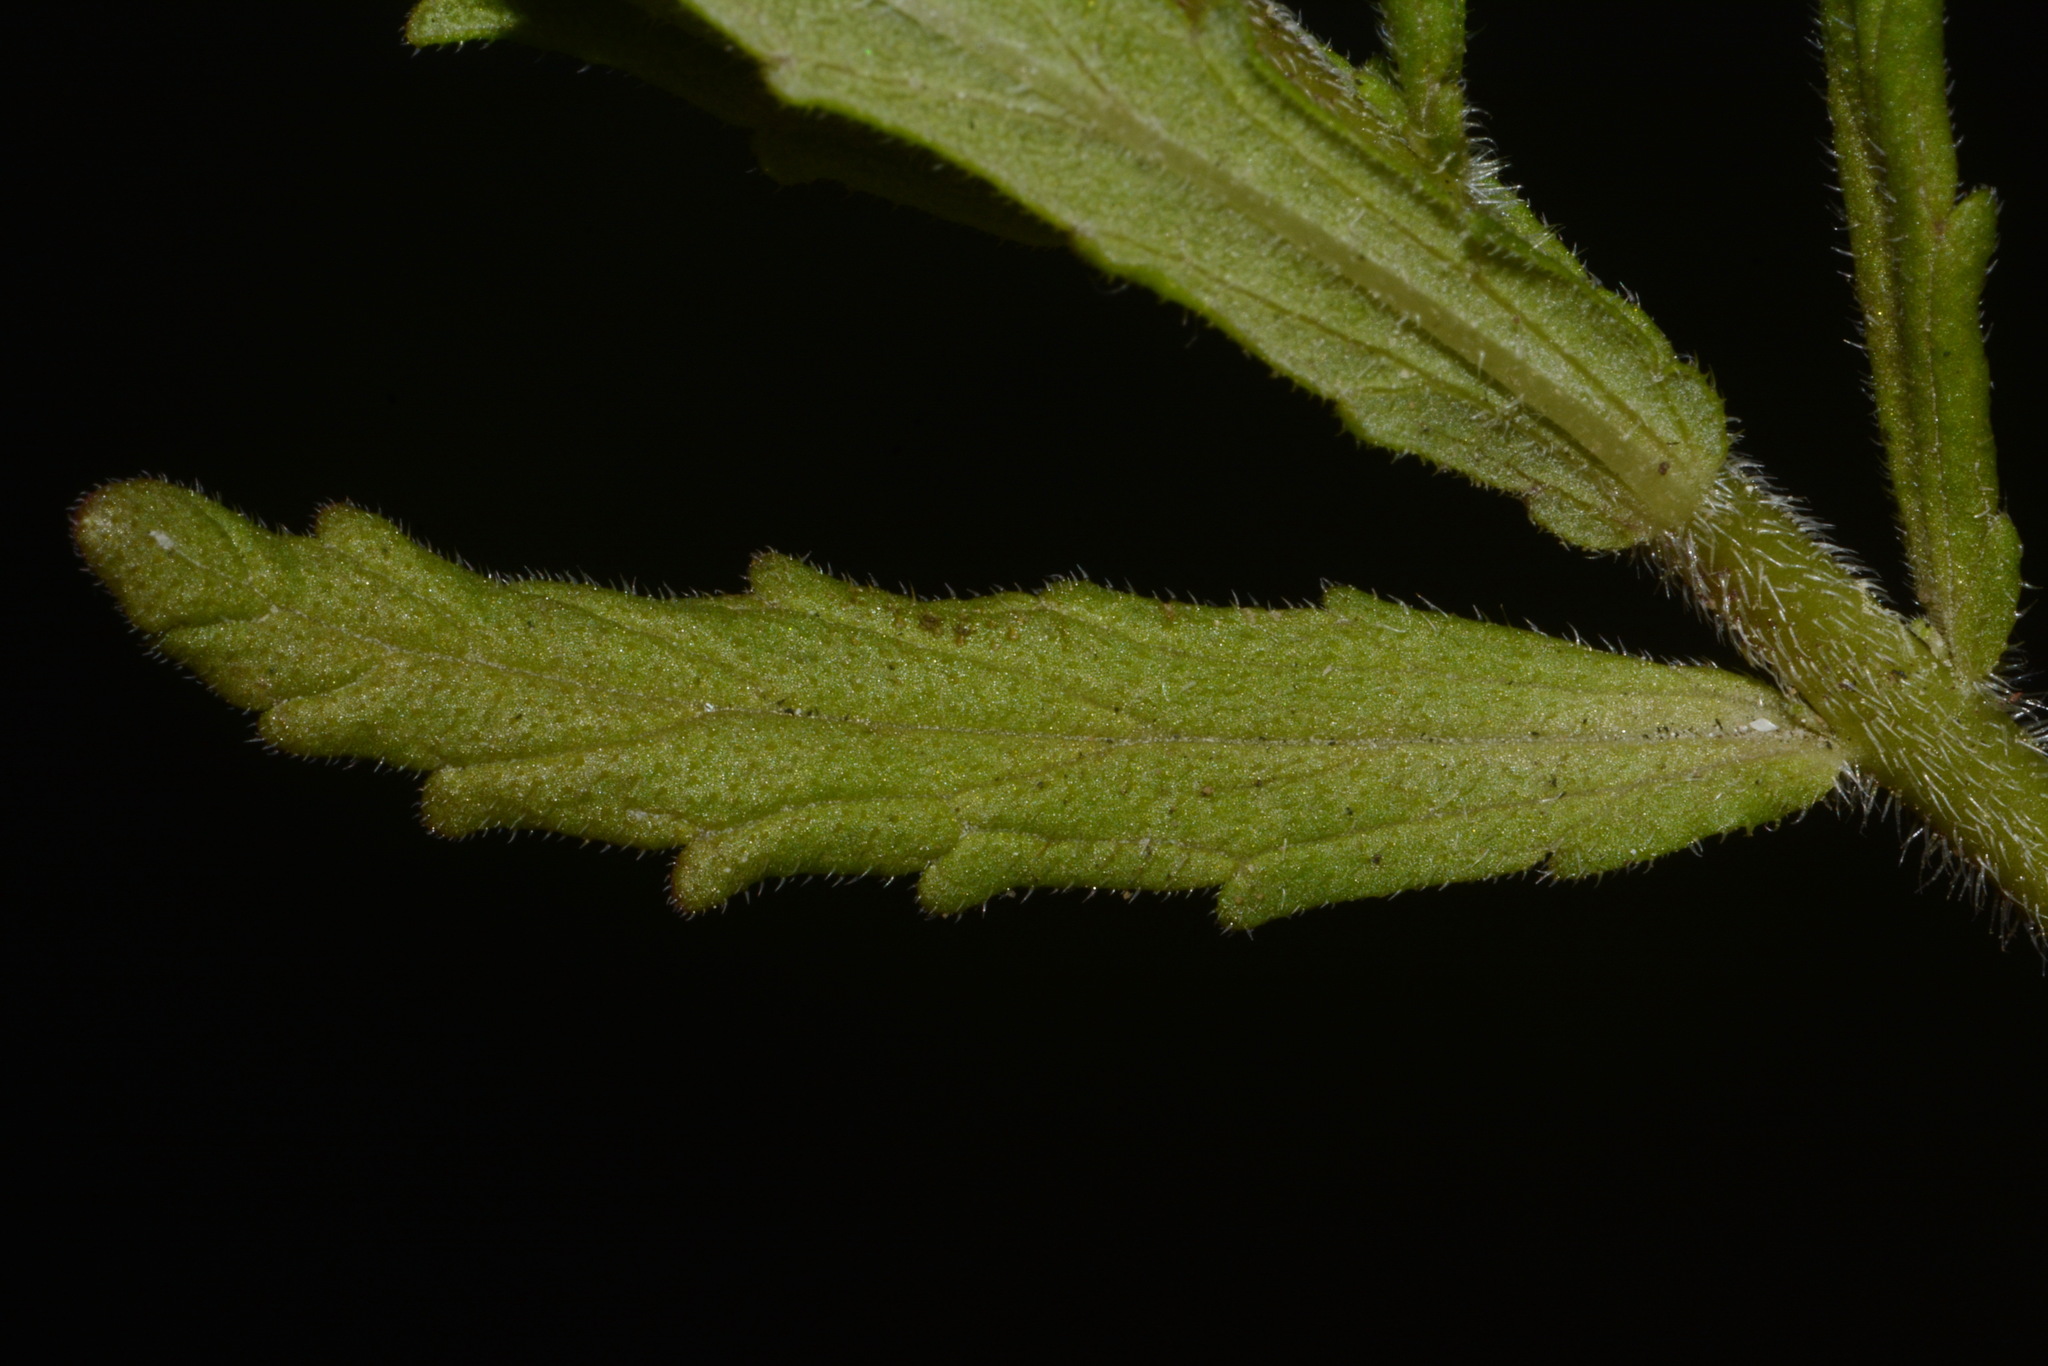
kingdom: Plantae
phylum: Tracheophyta
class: Magnoliopsida
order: Lamiales
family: Orobanchaceae
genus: Bellardia
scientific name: Bellardia trixago
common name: Mediterranean lineseed
